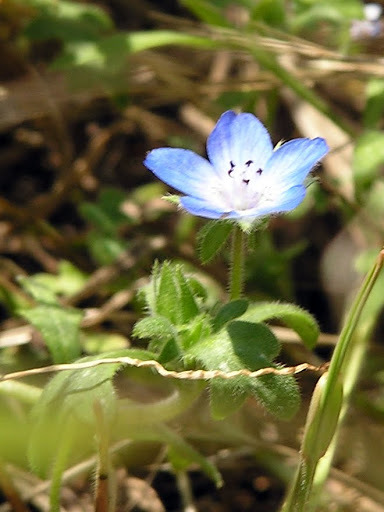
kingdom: Plantae
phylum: Tracheophyta
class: Magnoliopsida
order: Boraginales
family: Hydrophyllaceae
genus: Nemophila
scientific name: Nemophila menziesii
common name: Baby's-blue-eyes
